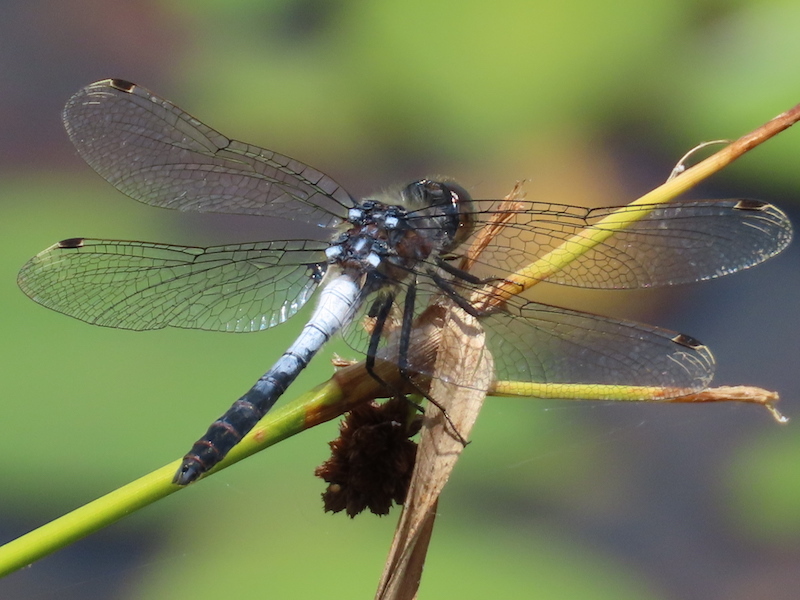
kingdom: Animalia
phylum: Arthropoda
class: Insecta
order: Odonata
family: Libellulidae
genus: Leucorrhinia
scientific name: Leucorrhinia frigida
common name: Frosted whiteface
